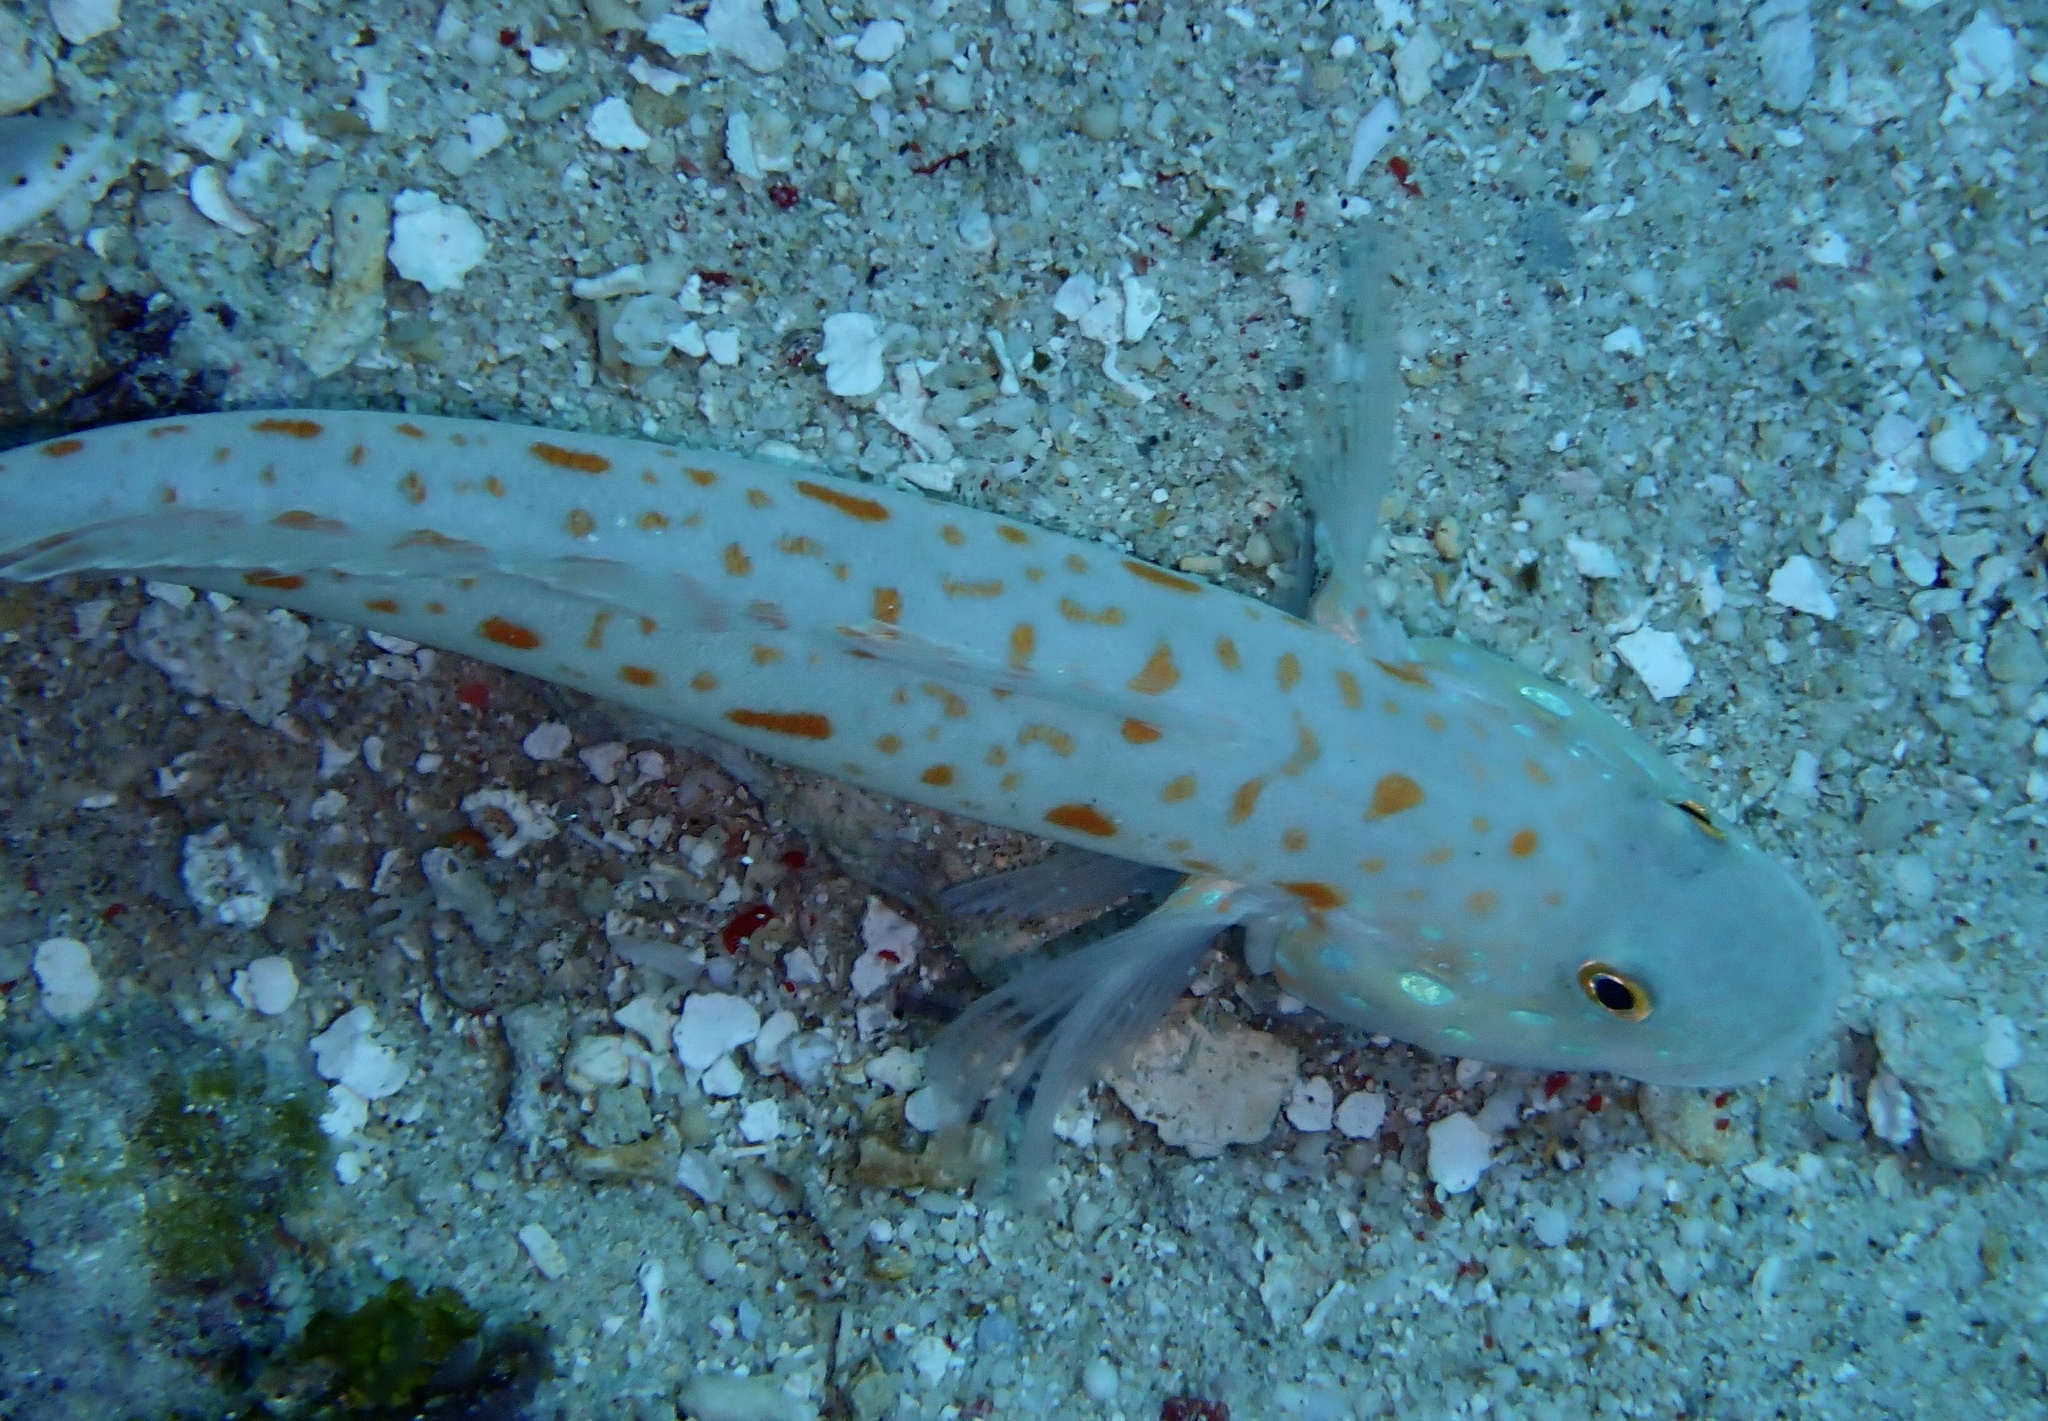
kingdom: Animalia
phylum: Chordata
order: Perciformes
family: Gobiidae
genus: Valenciennea
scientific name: Valenciennea puellaris
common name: Orange-dashed goby
